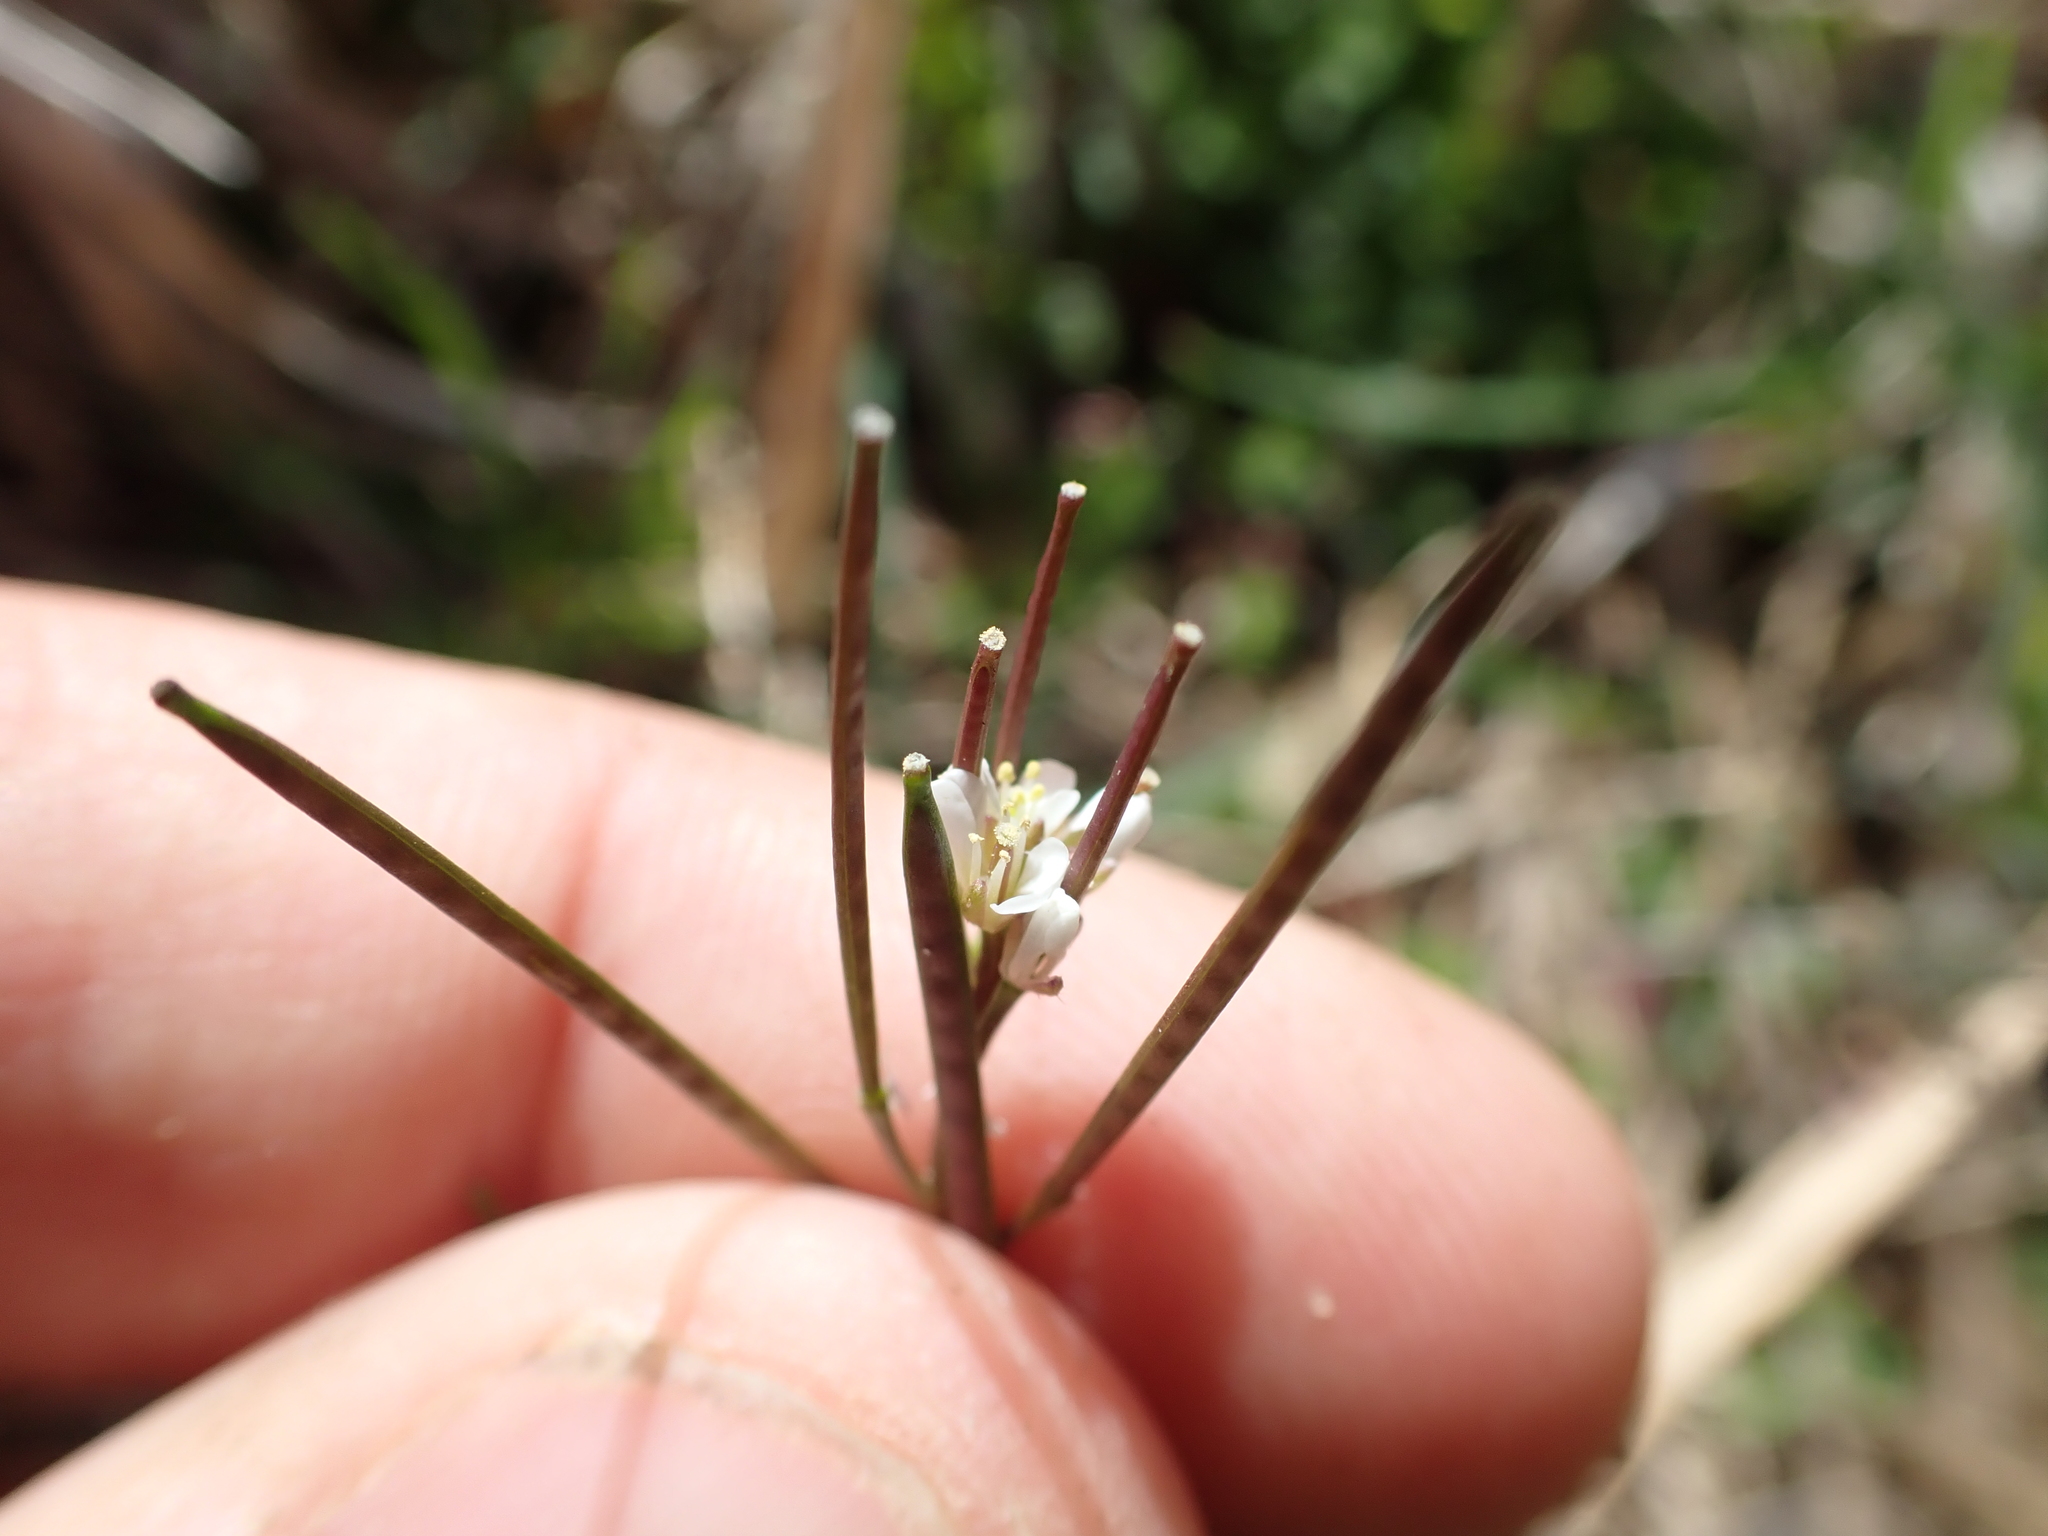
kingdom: Plantae
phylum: Tracheophyta
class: Magnoliopsida
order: Brassicales
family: Brassicaceae
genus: Cardamine
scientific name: Cardamine hirsuta
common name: Hairy bittercress
